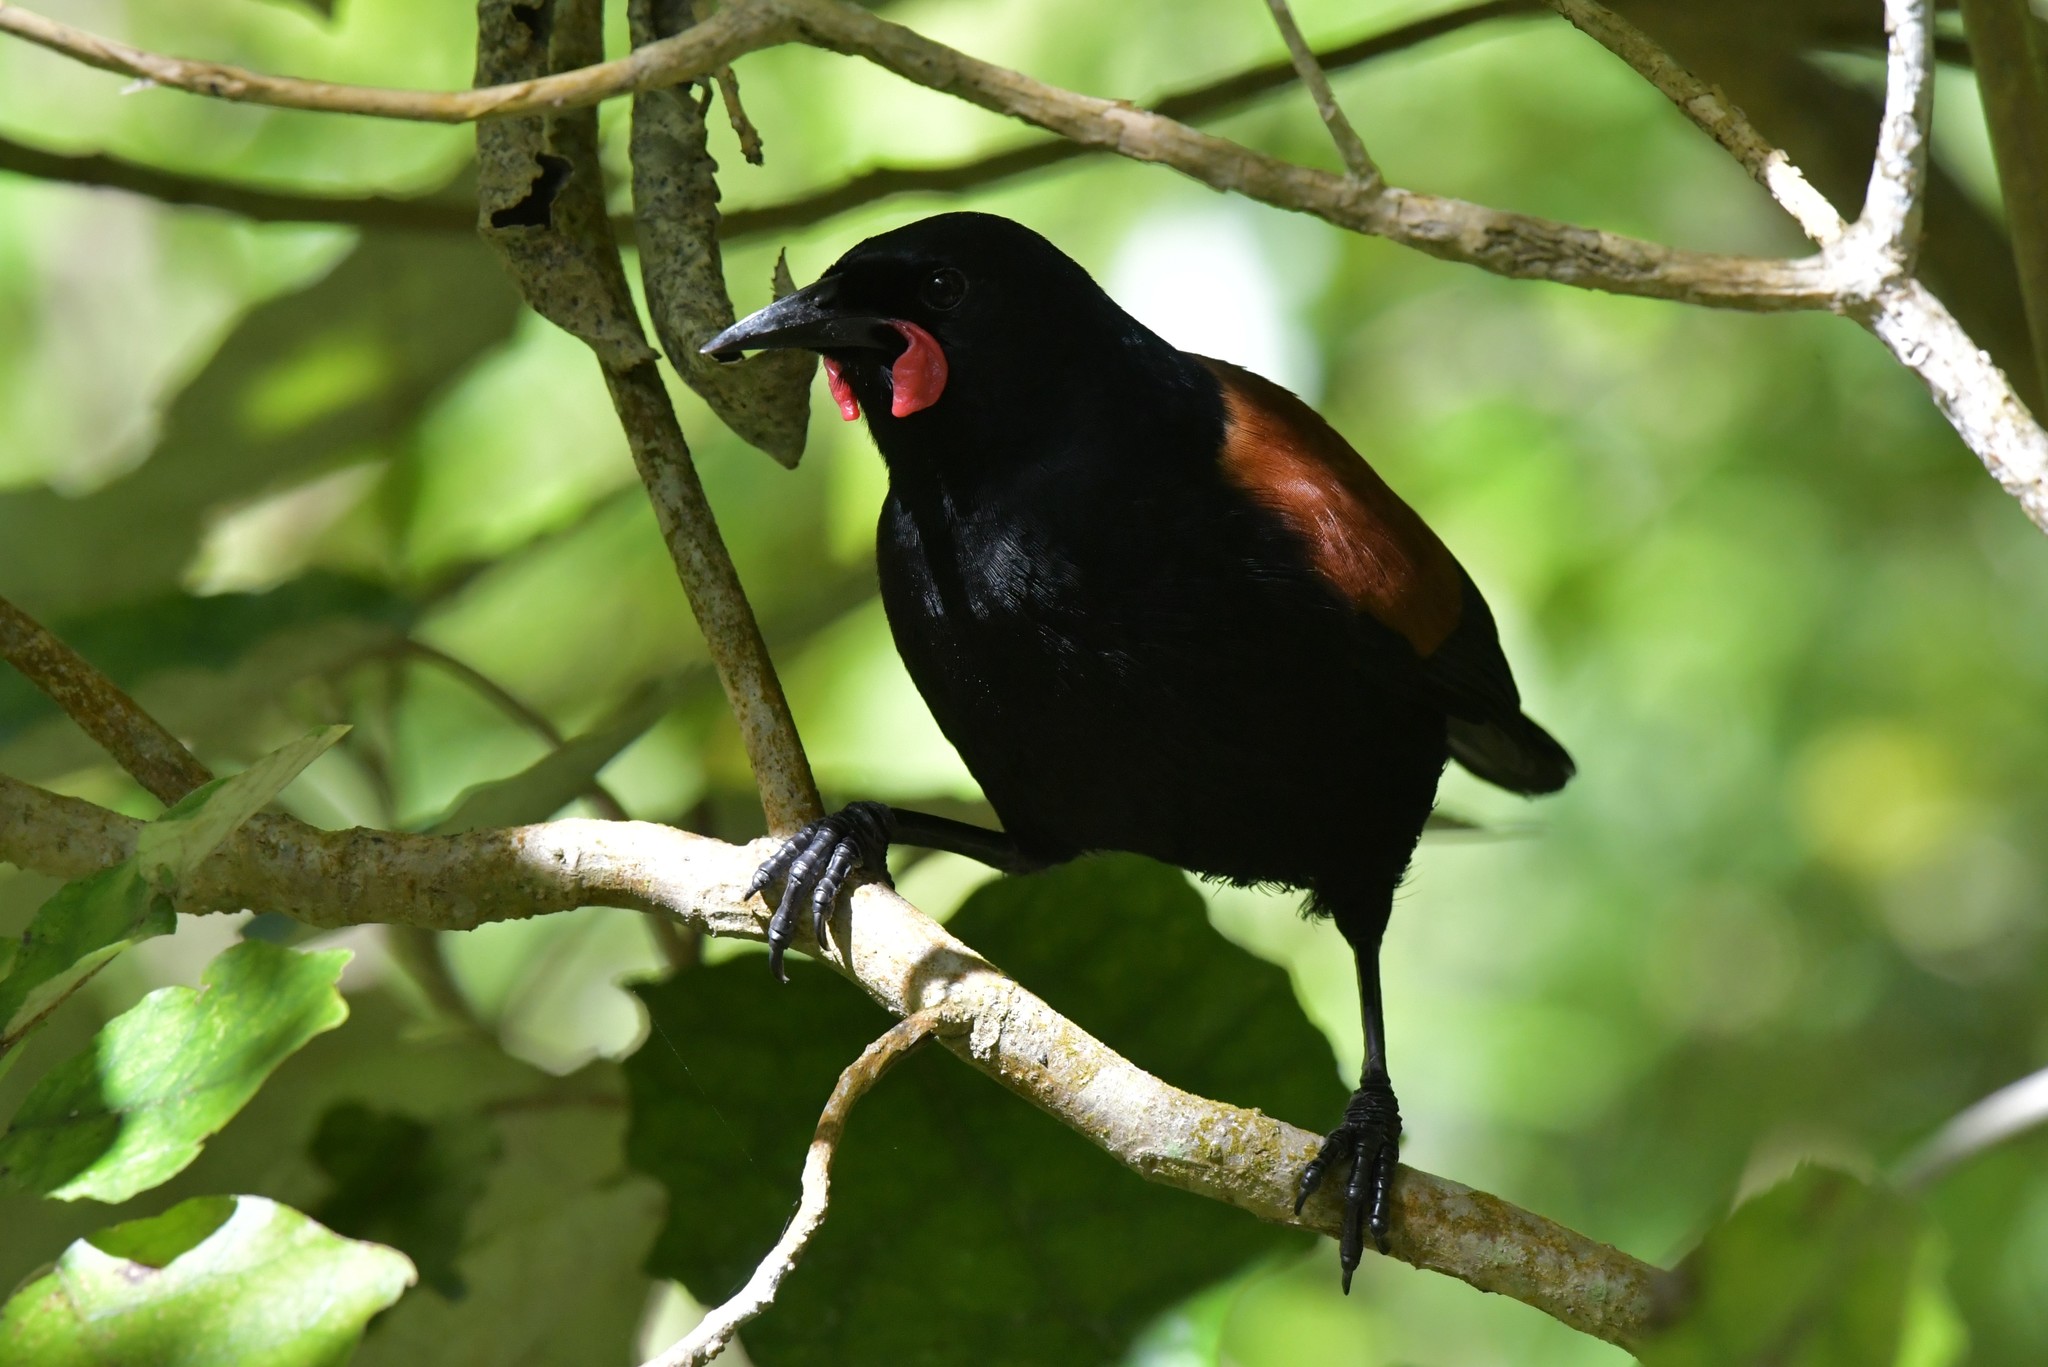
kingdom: Animalia
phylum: Chordata
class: Aves
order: Passeriformes
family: Callaeatidae
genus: Philesturnus
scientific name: Philesturnus carunculatus
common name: South island saddleback
